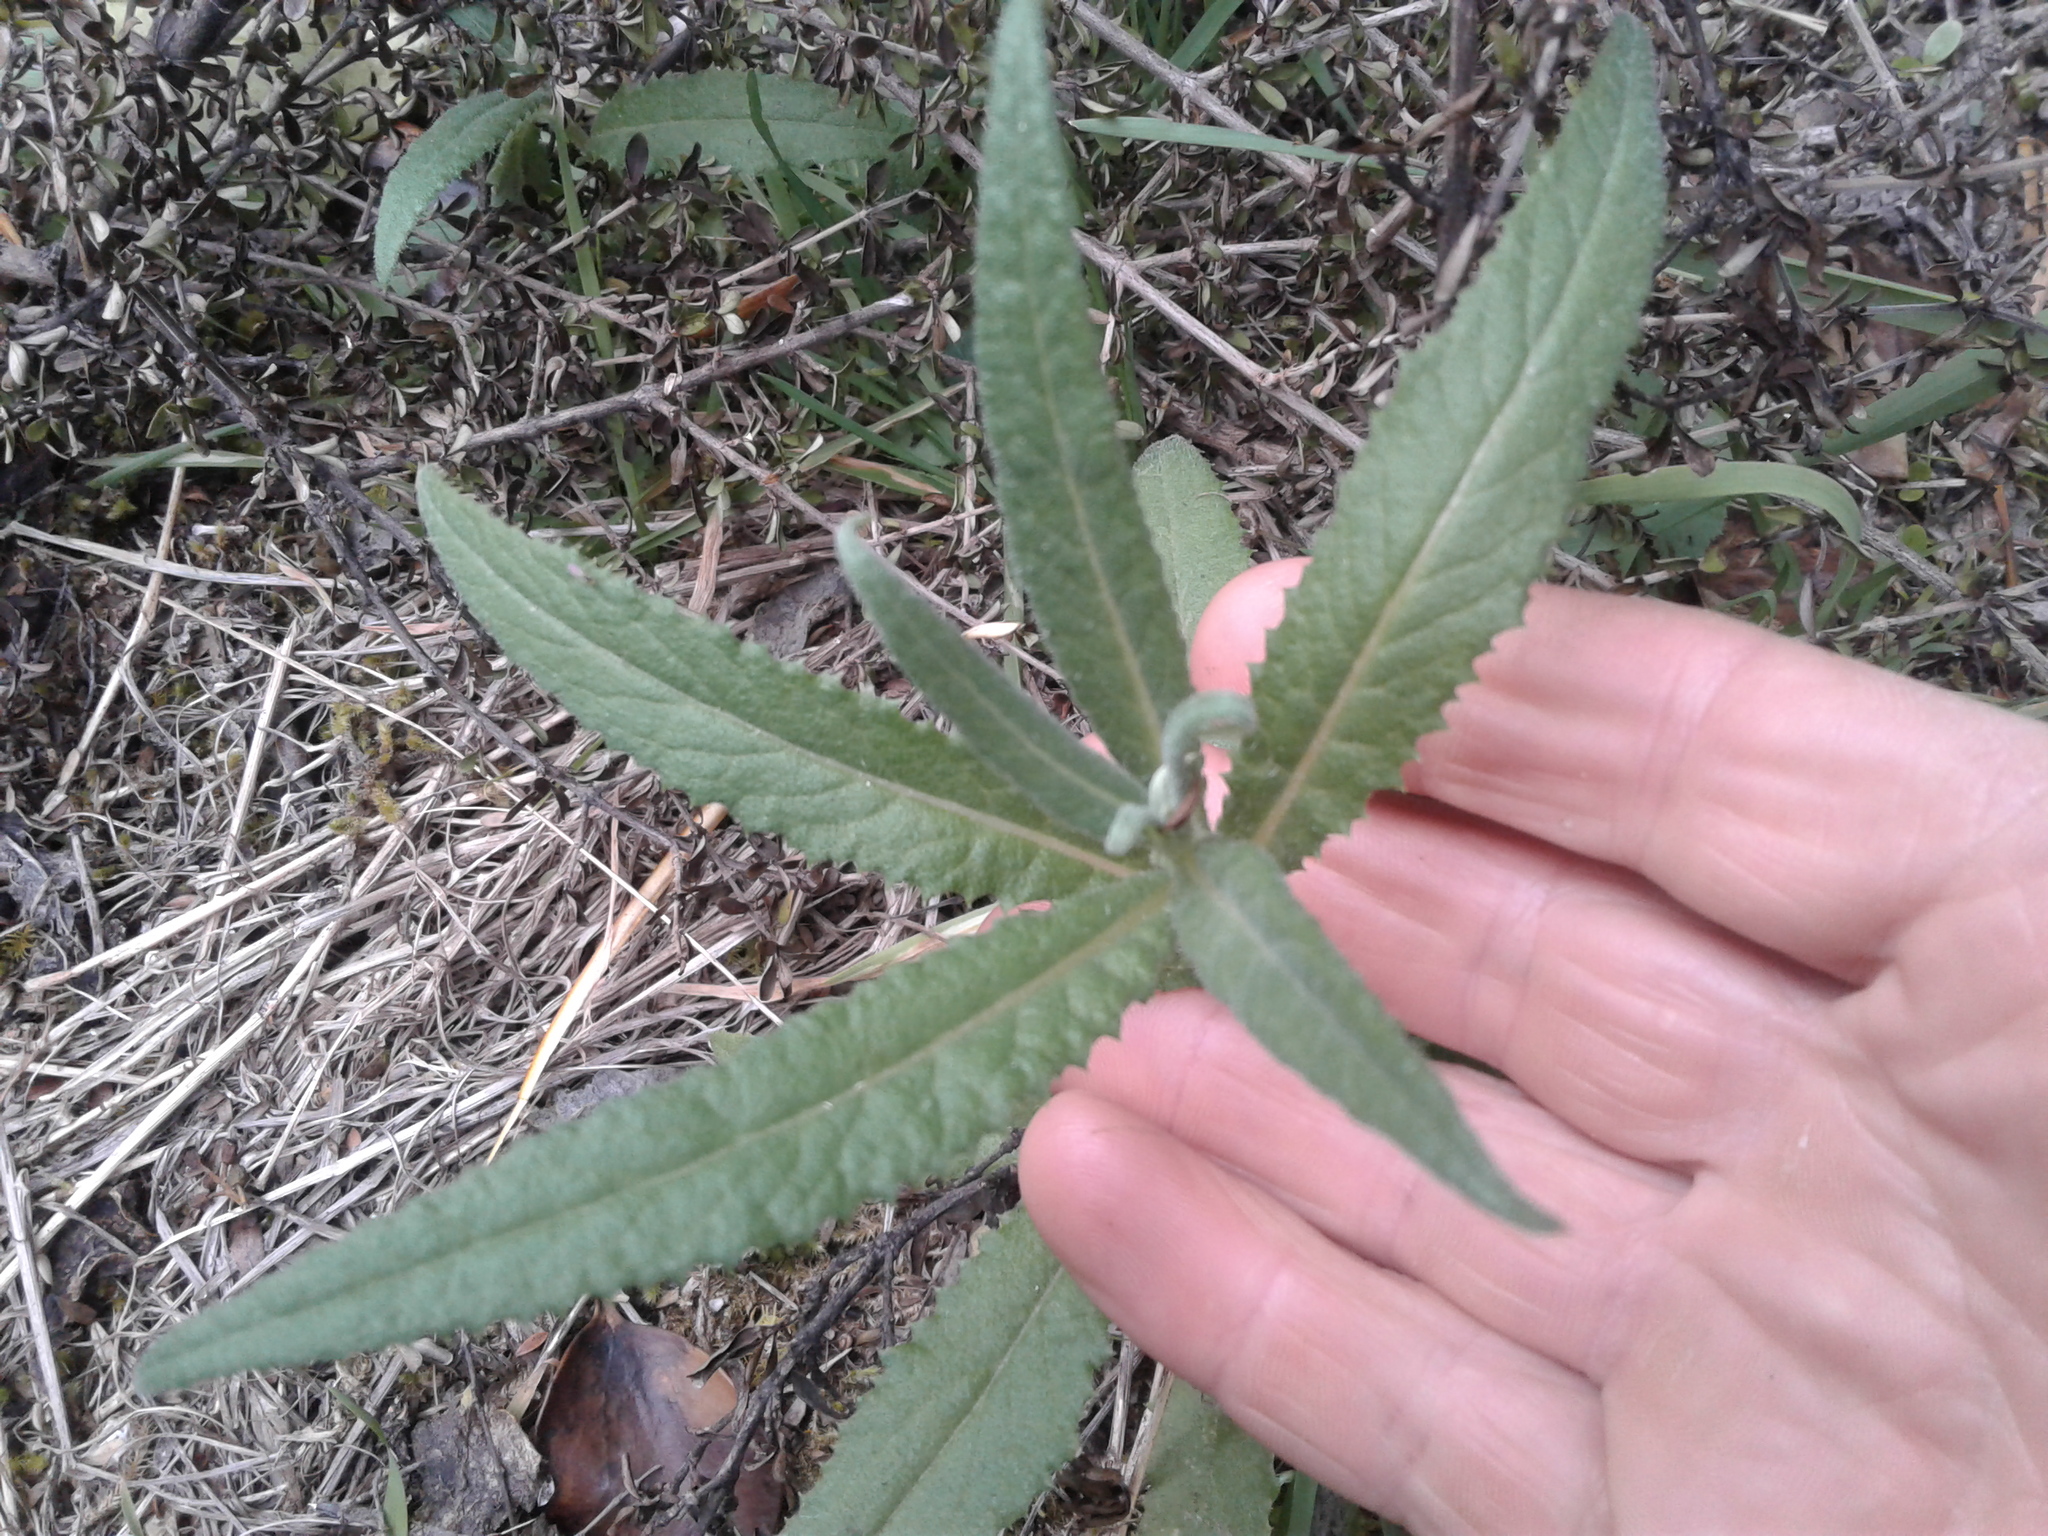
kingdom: Plantae
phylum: Tracheophyta
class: Magnoliopsida
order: Asterales
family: Asteraceae
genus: Senecio
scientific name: Senecio minimus
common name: Toothed fireweed
